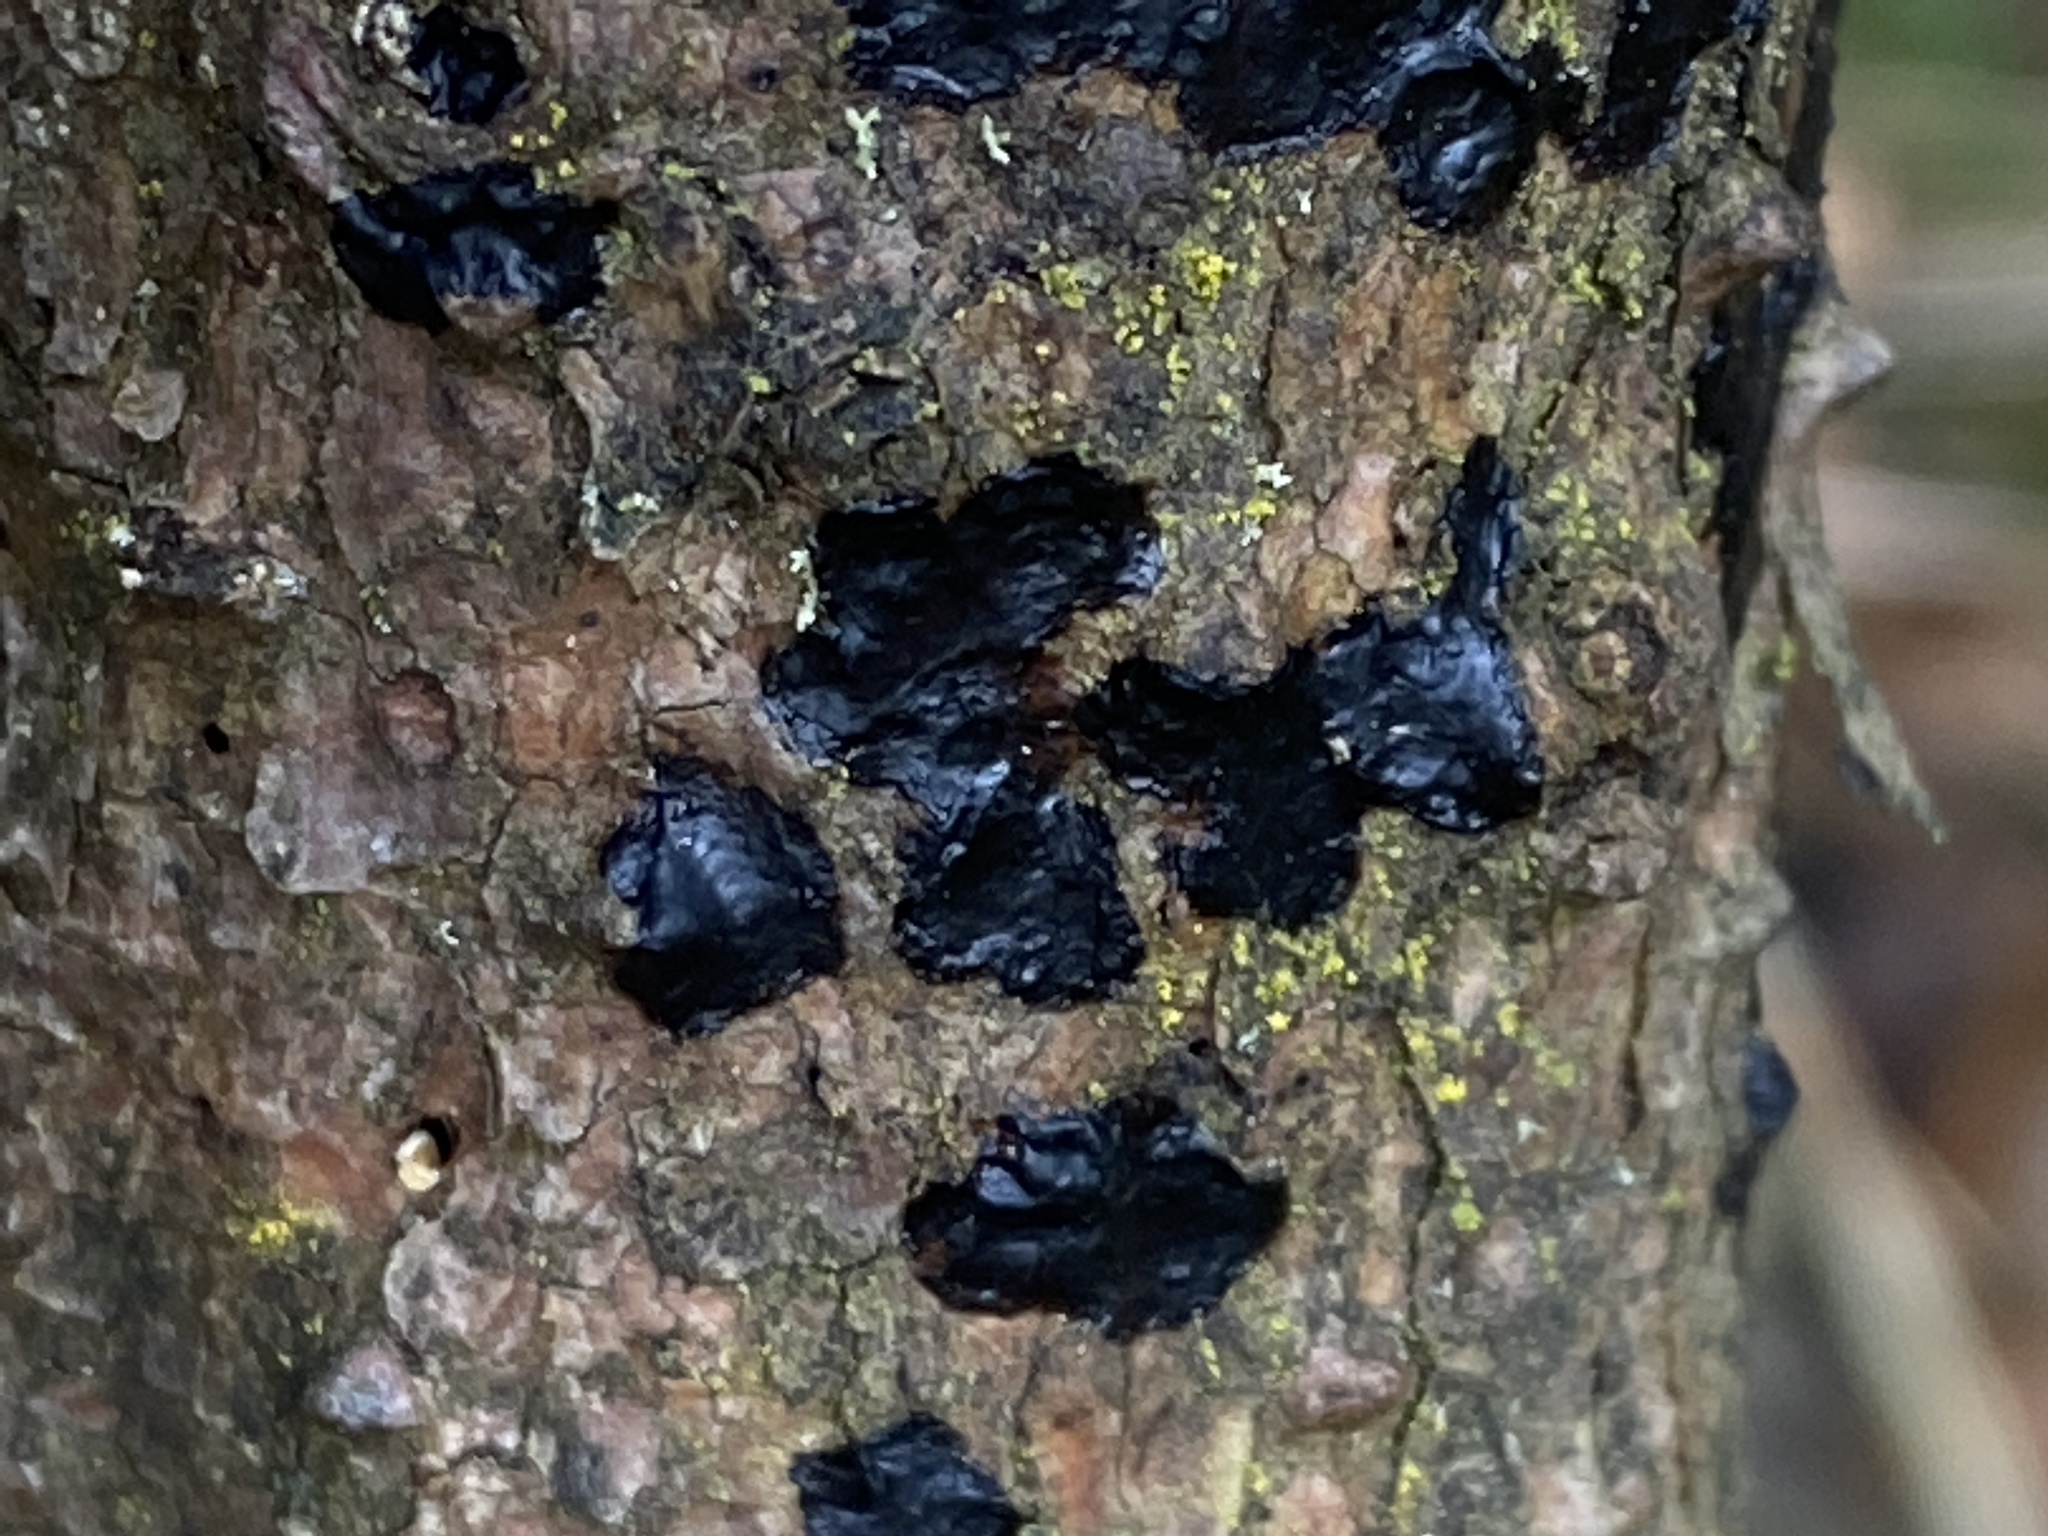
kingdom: Fungi
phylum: Basidiomycota
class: Agaricomycetes
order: Auriculariales
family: Auriculariaceae
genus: Exidia
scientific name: Exidia pithya
